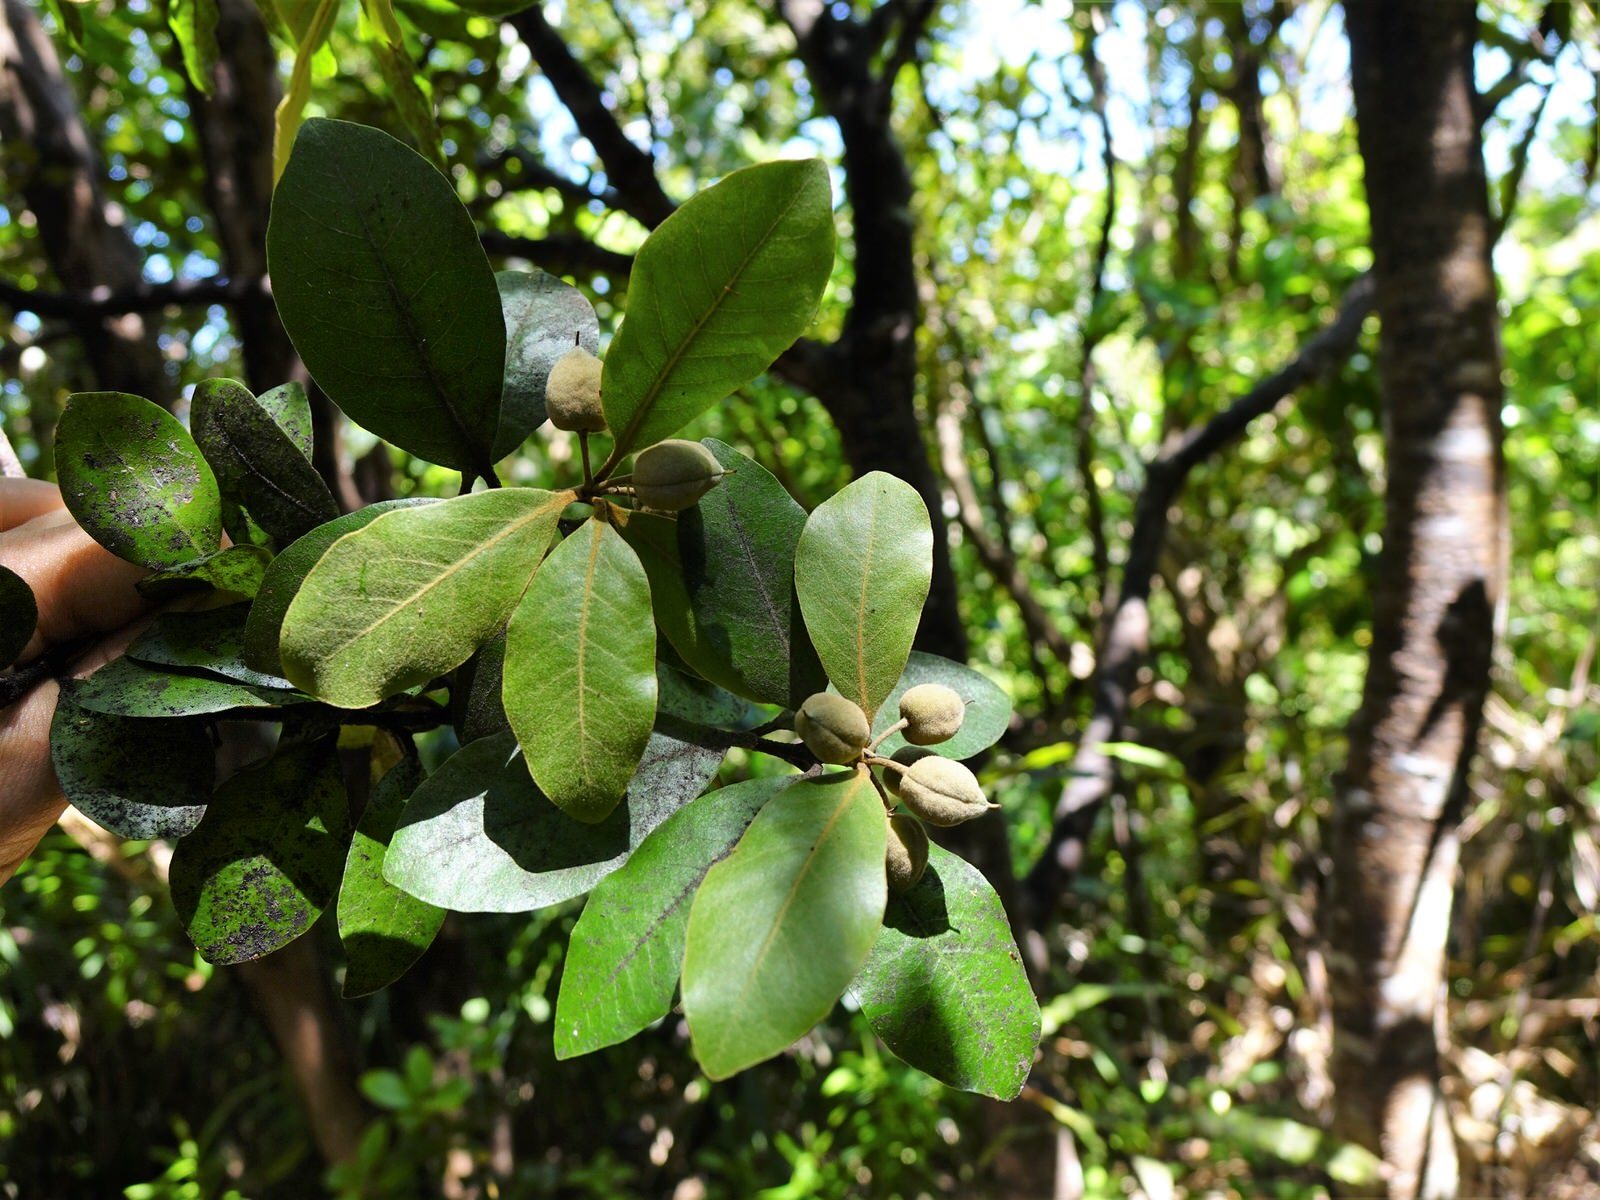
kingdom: Plantae
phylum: Tracheophyta
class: Magnoliopsida
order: Apiales
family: Pittosporaceae
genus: Pittosporum
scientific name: Pittosporum ellipticum
